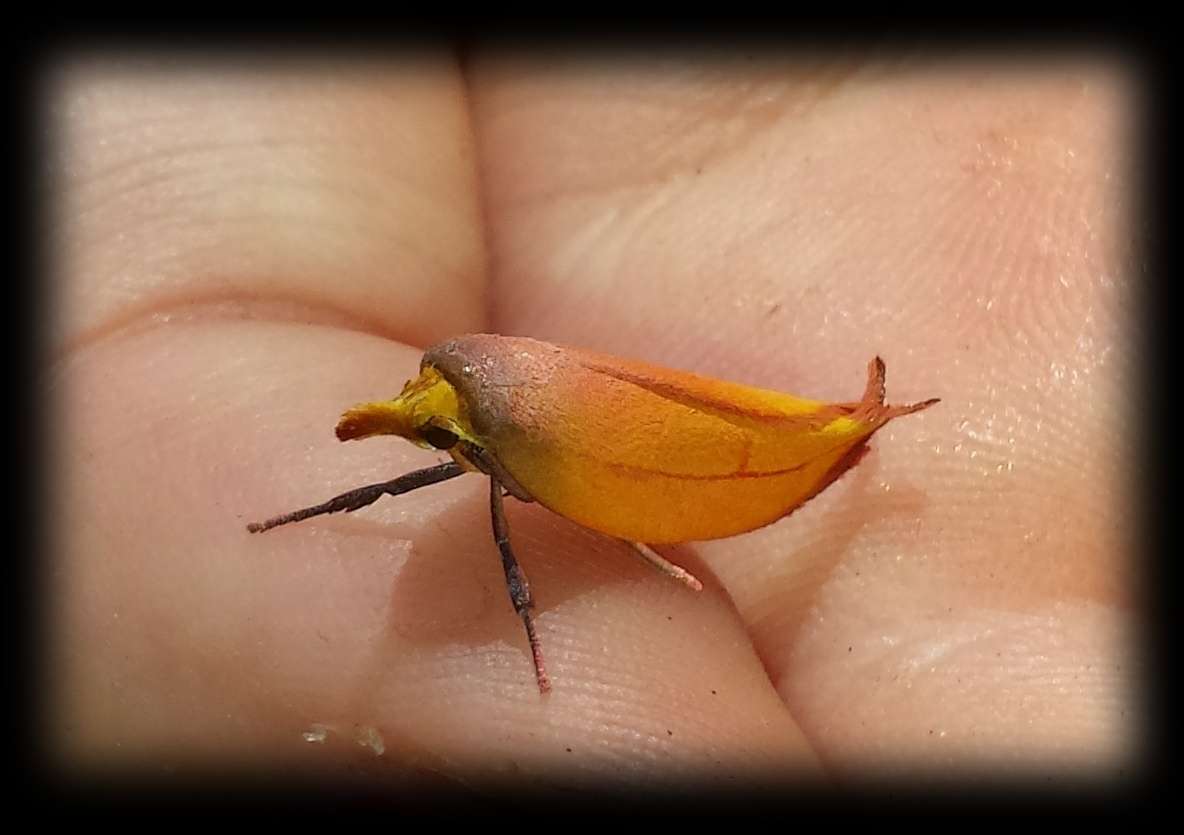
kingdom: Animalia
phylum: Arthropoda
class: Insecta
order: Lepidoptera
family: Oecophoridae
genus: Wingia
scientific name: Wingia aurata
